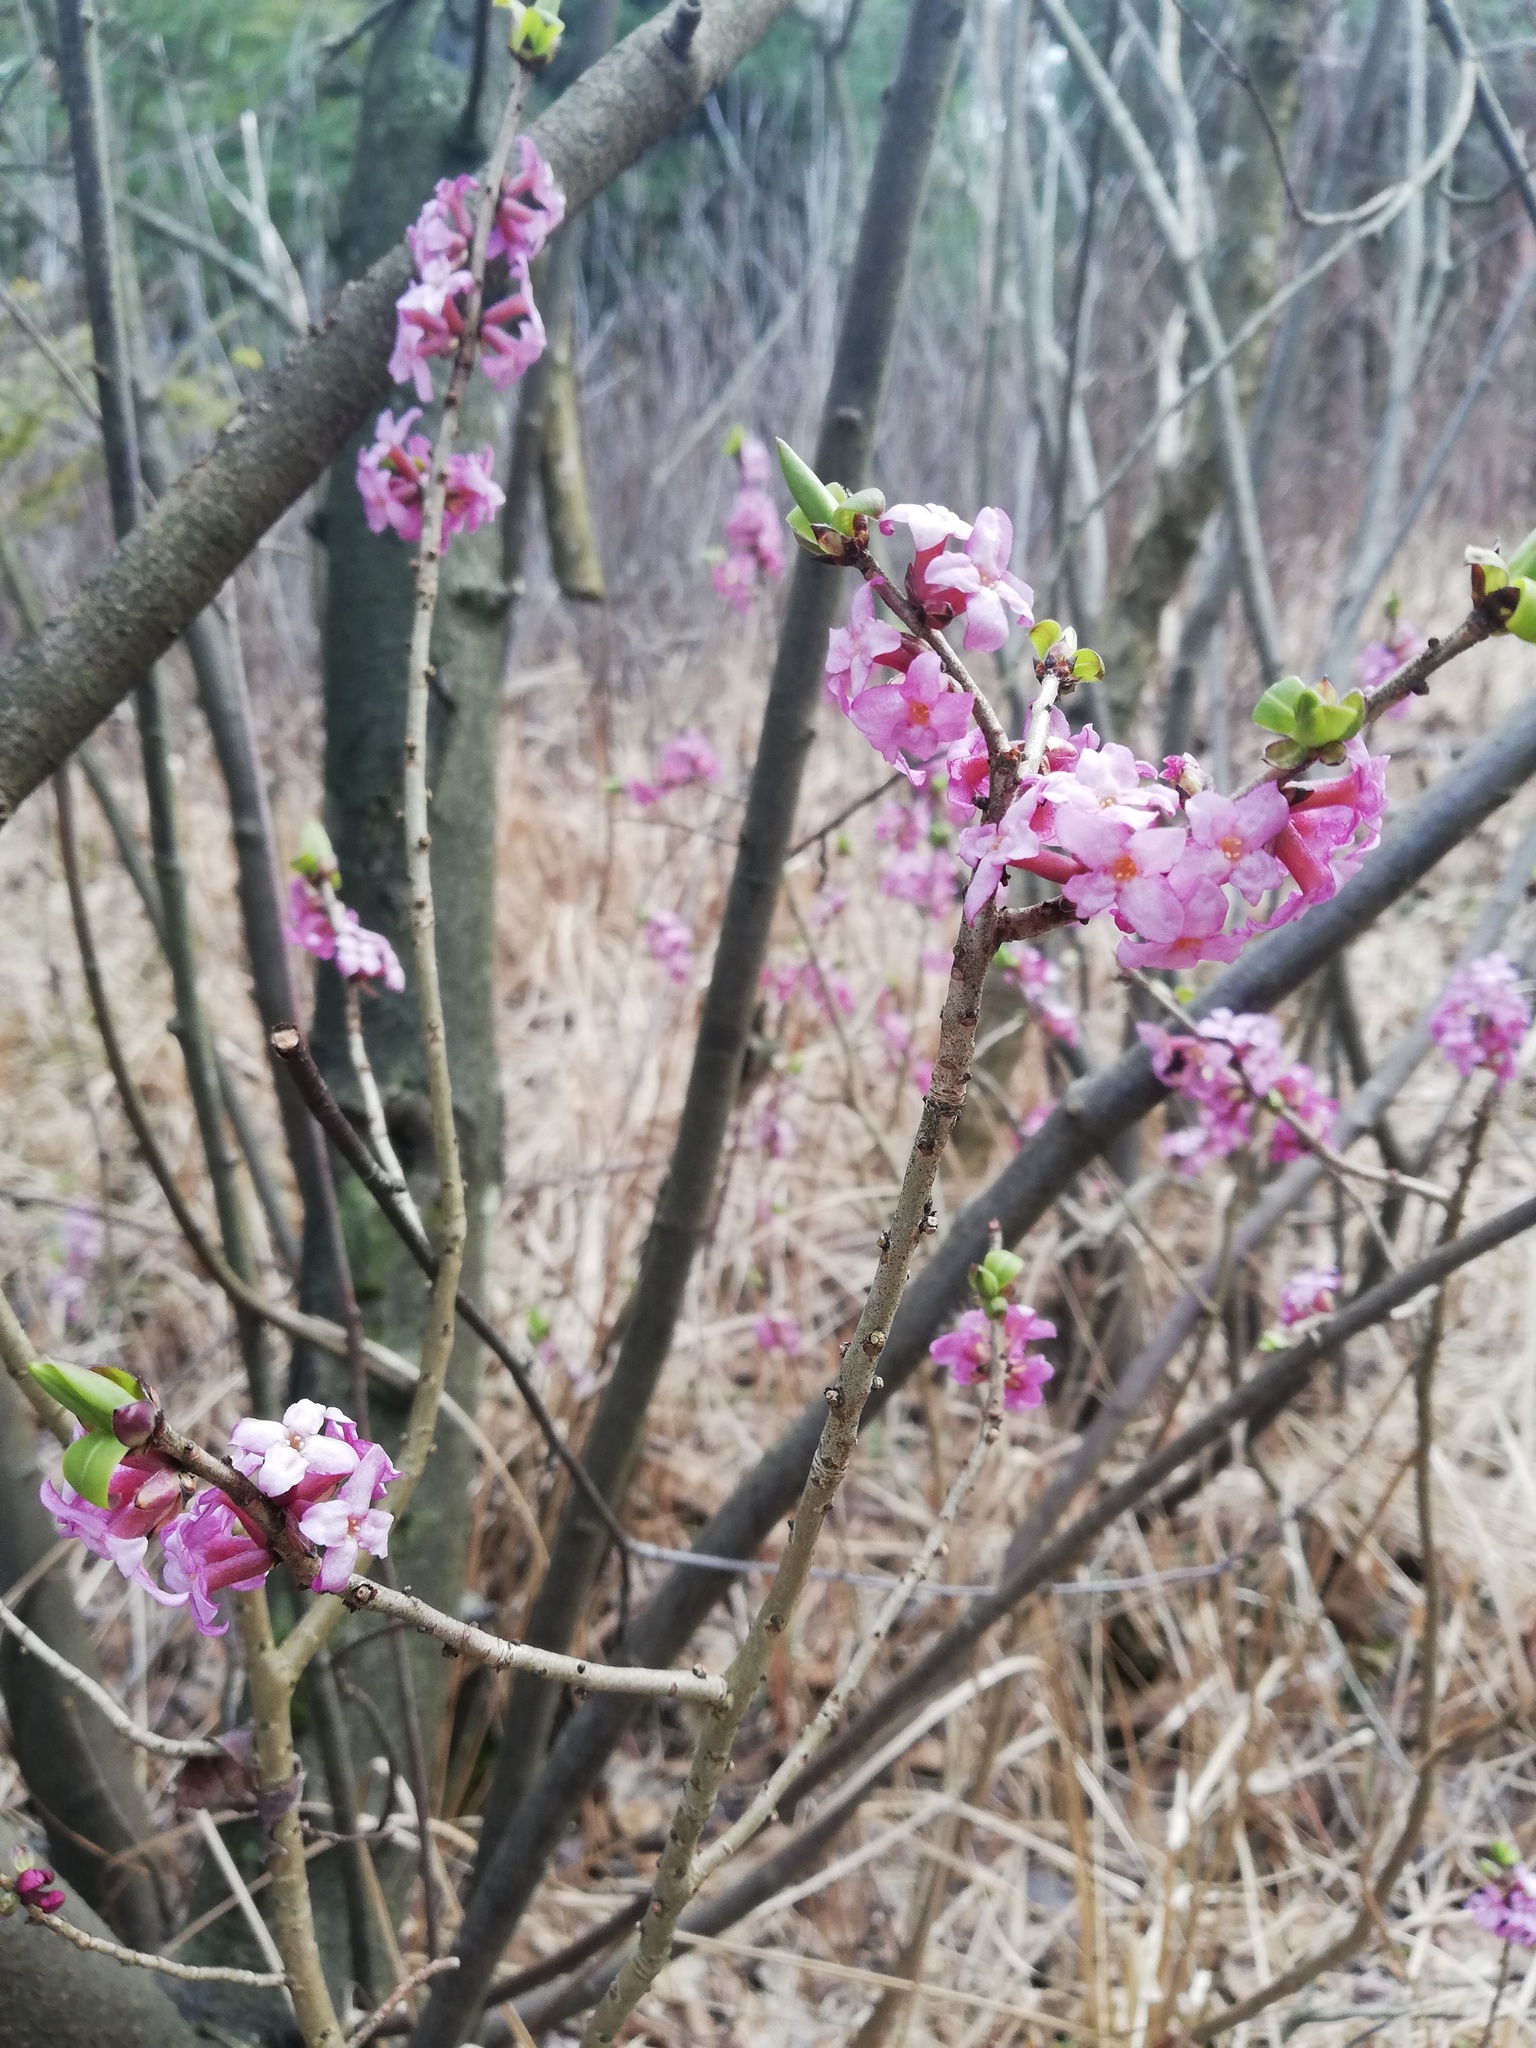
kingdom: Plantae
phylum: Tracheophyta
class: Magnoliopsida
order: Malvales
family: Thymelaeaceae
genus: Daphne
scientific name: Daphne mezereum
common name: Mezereon
